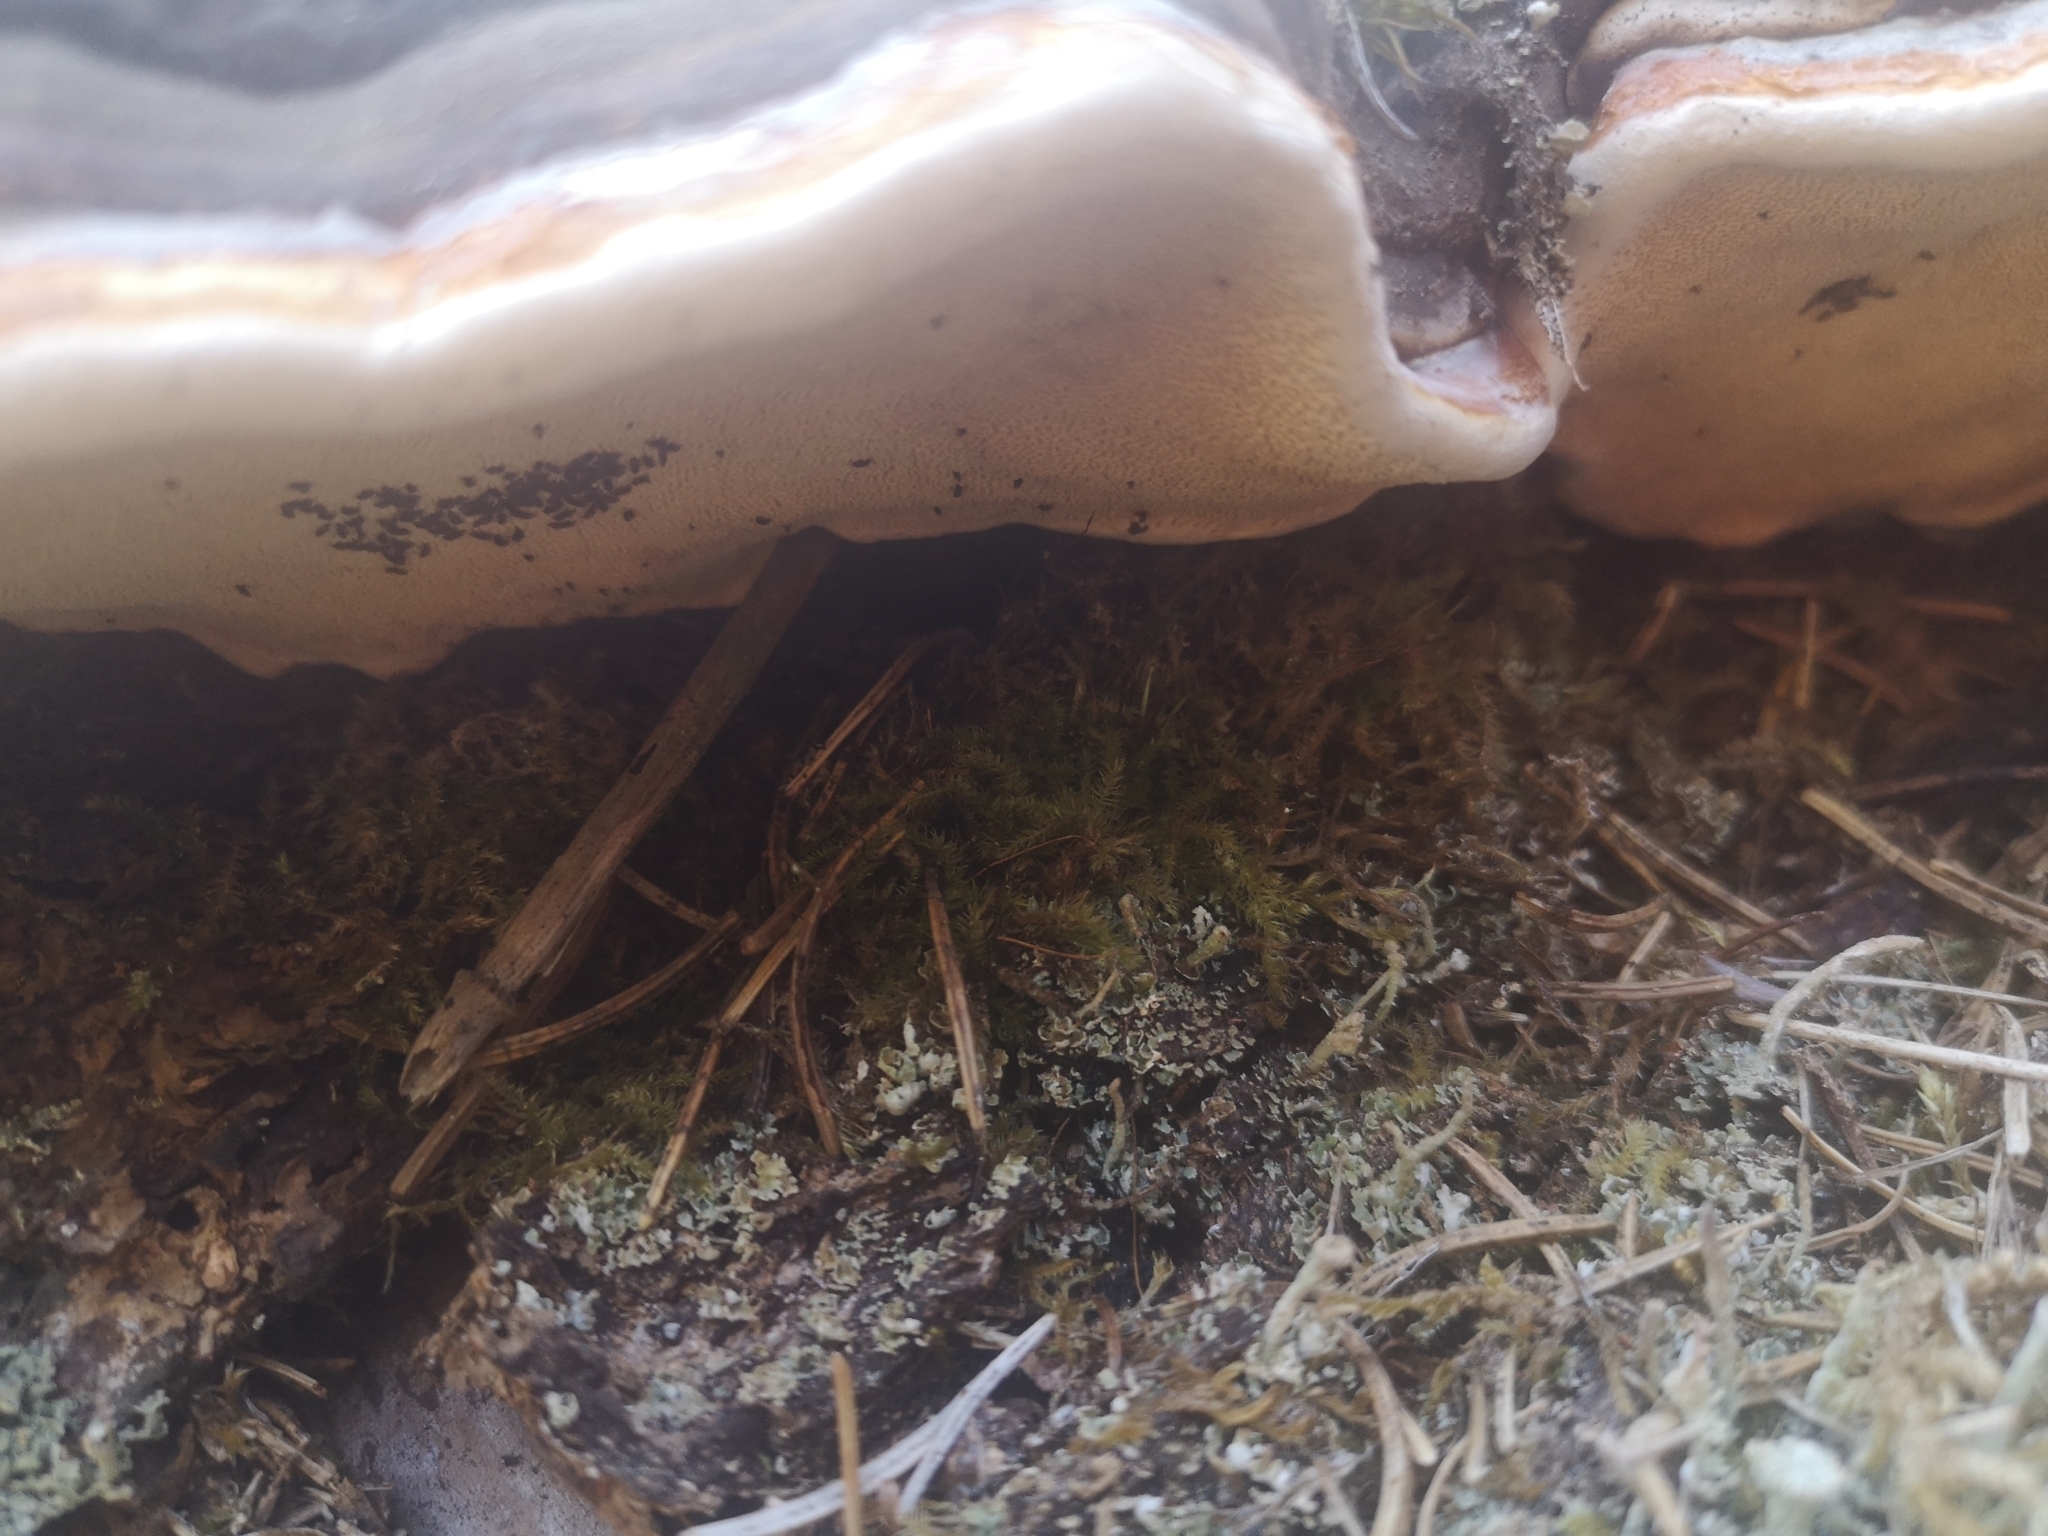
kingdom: Fungi
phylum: Basidiomycota
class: Agaricomycetes
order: Polyporales
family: Fomitopsidaceae
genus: Fomitopsis
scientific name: Fomitopsis pinicola
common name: Red-belted bracket
